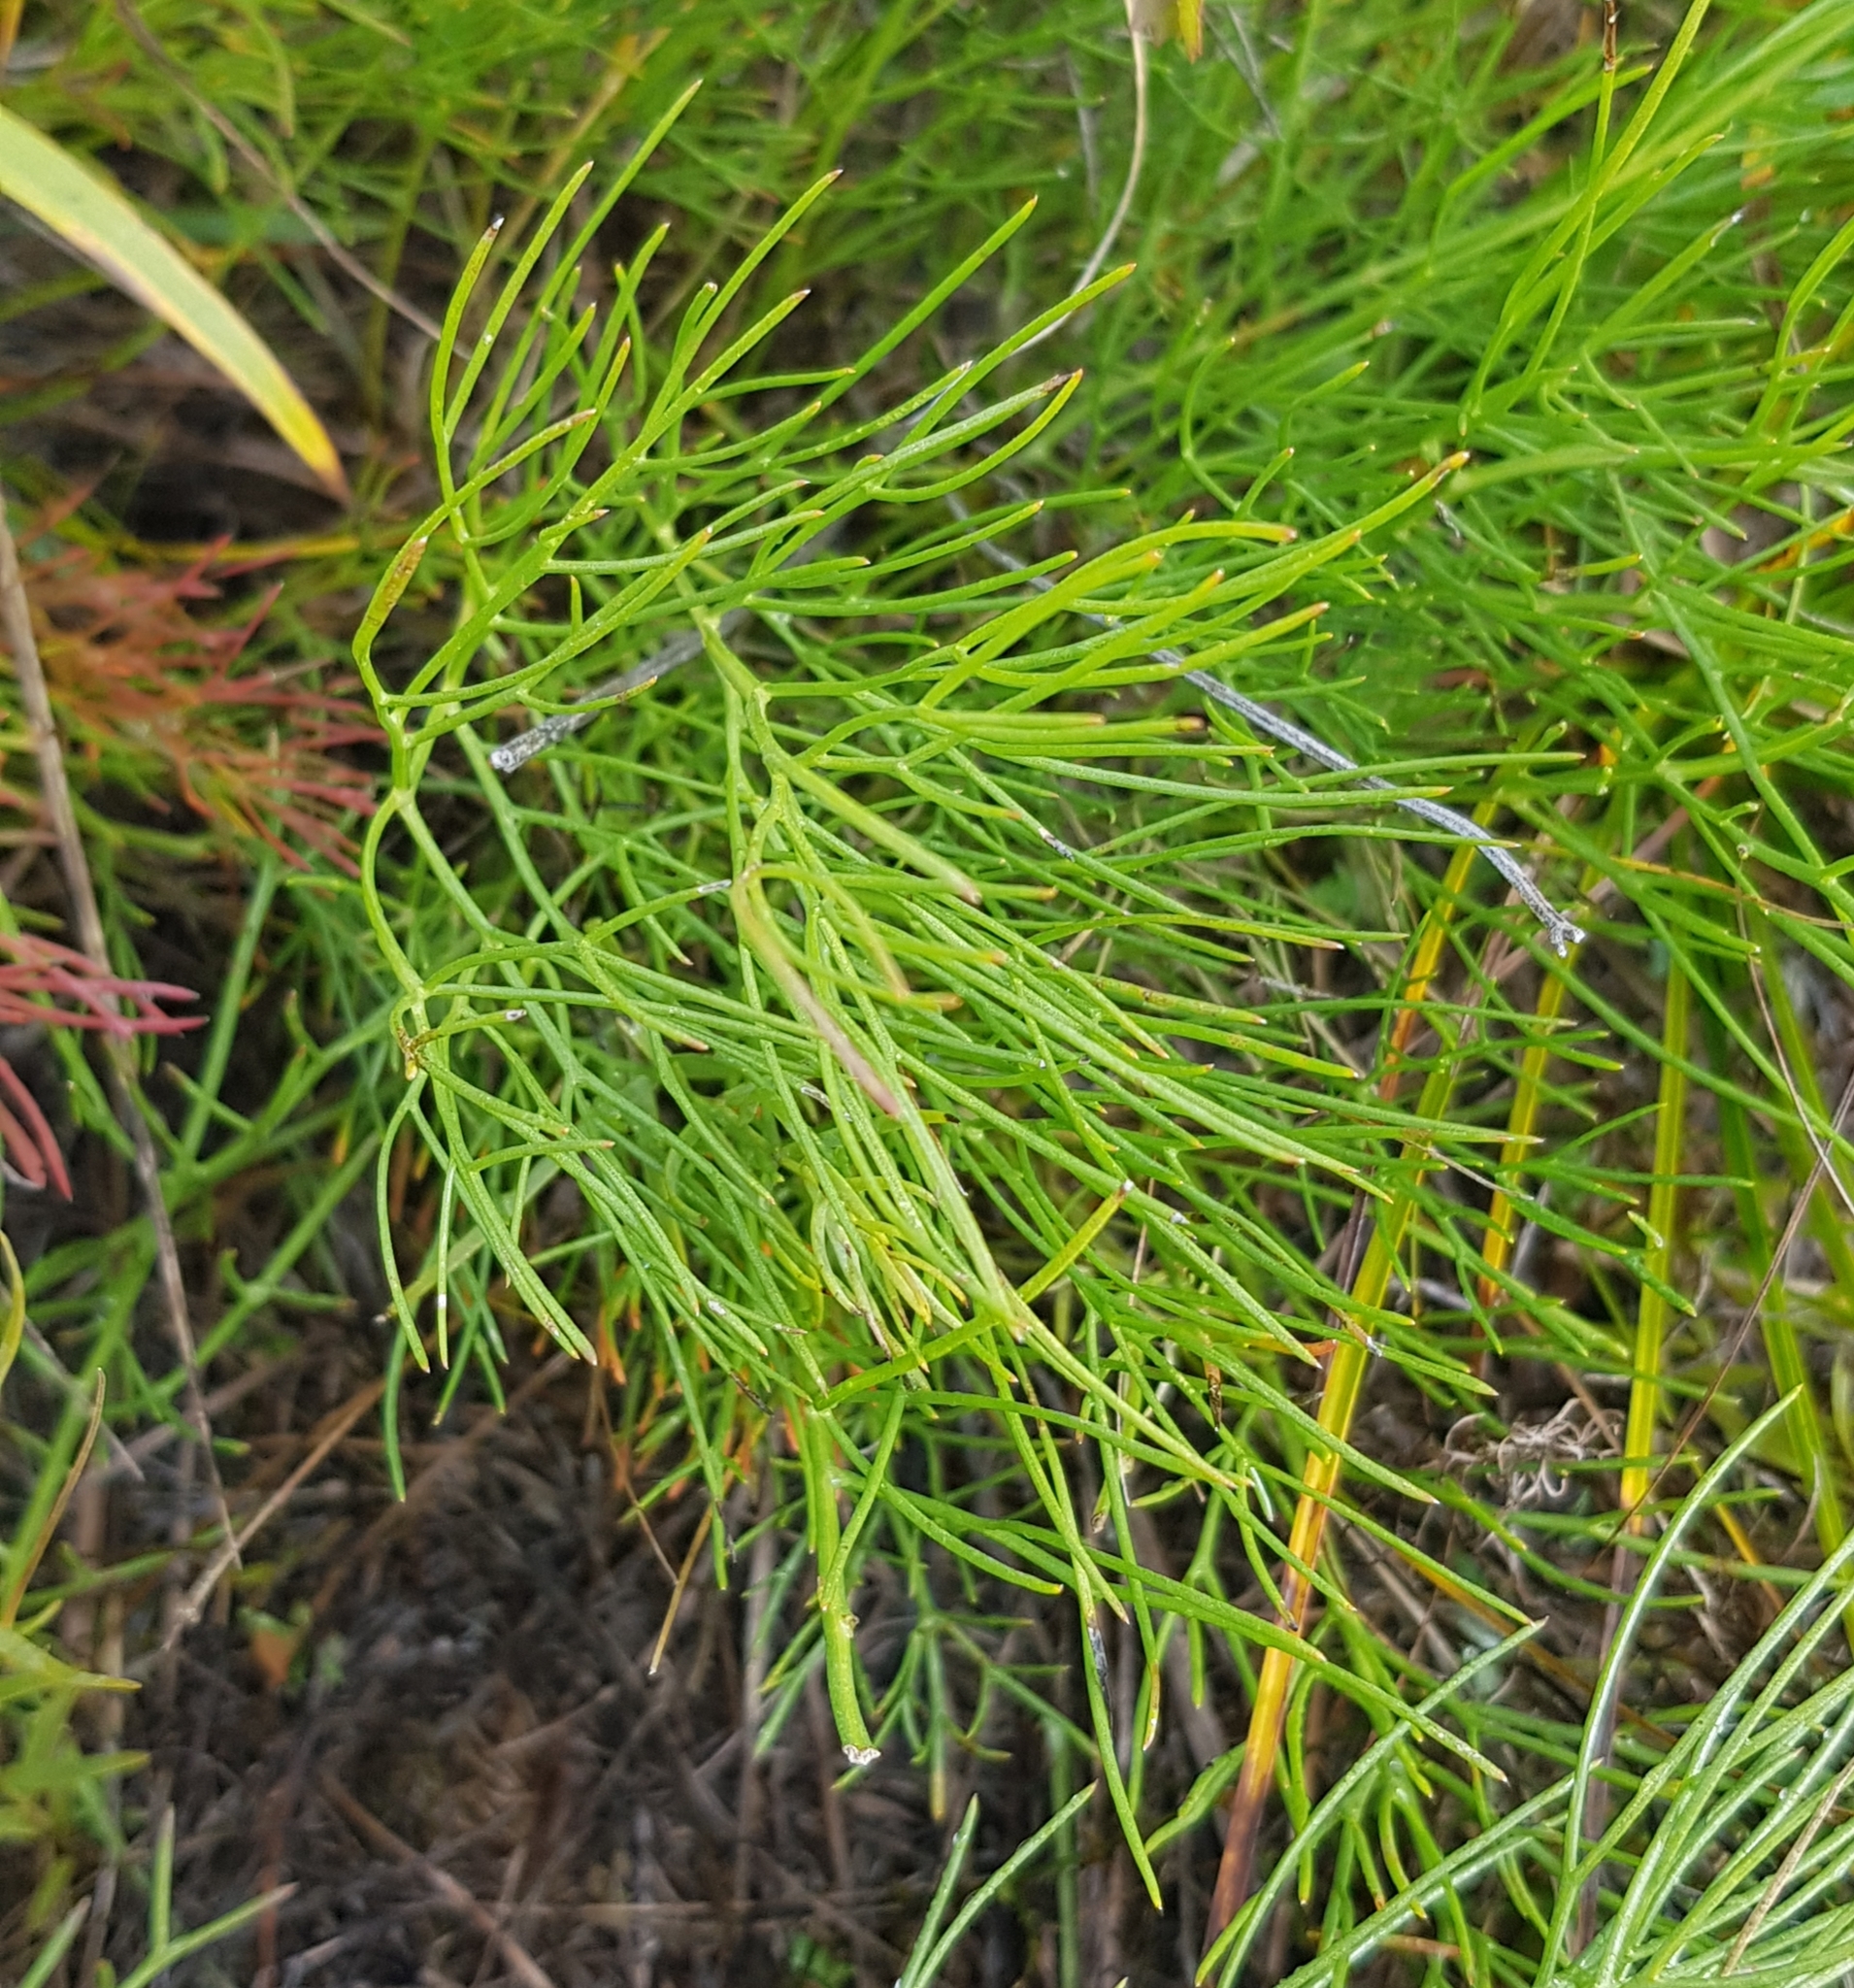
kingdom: Plantae
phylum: Tracheophyta
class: Magnoliopsida
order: Asterales
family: Asteraceae
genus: Filifolium
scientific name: Filifolium sibiricum
